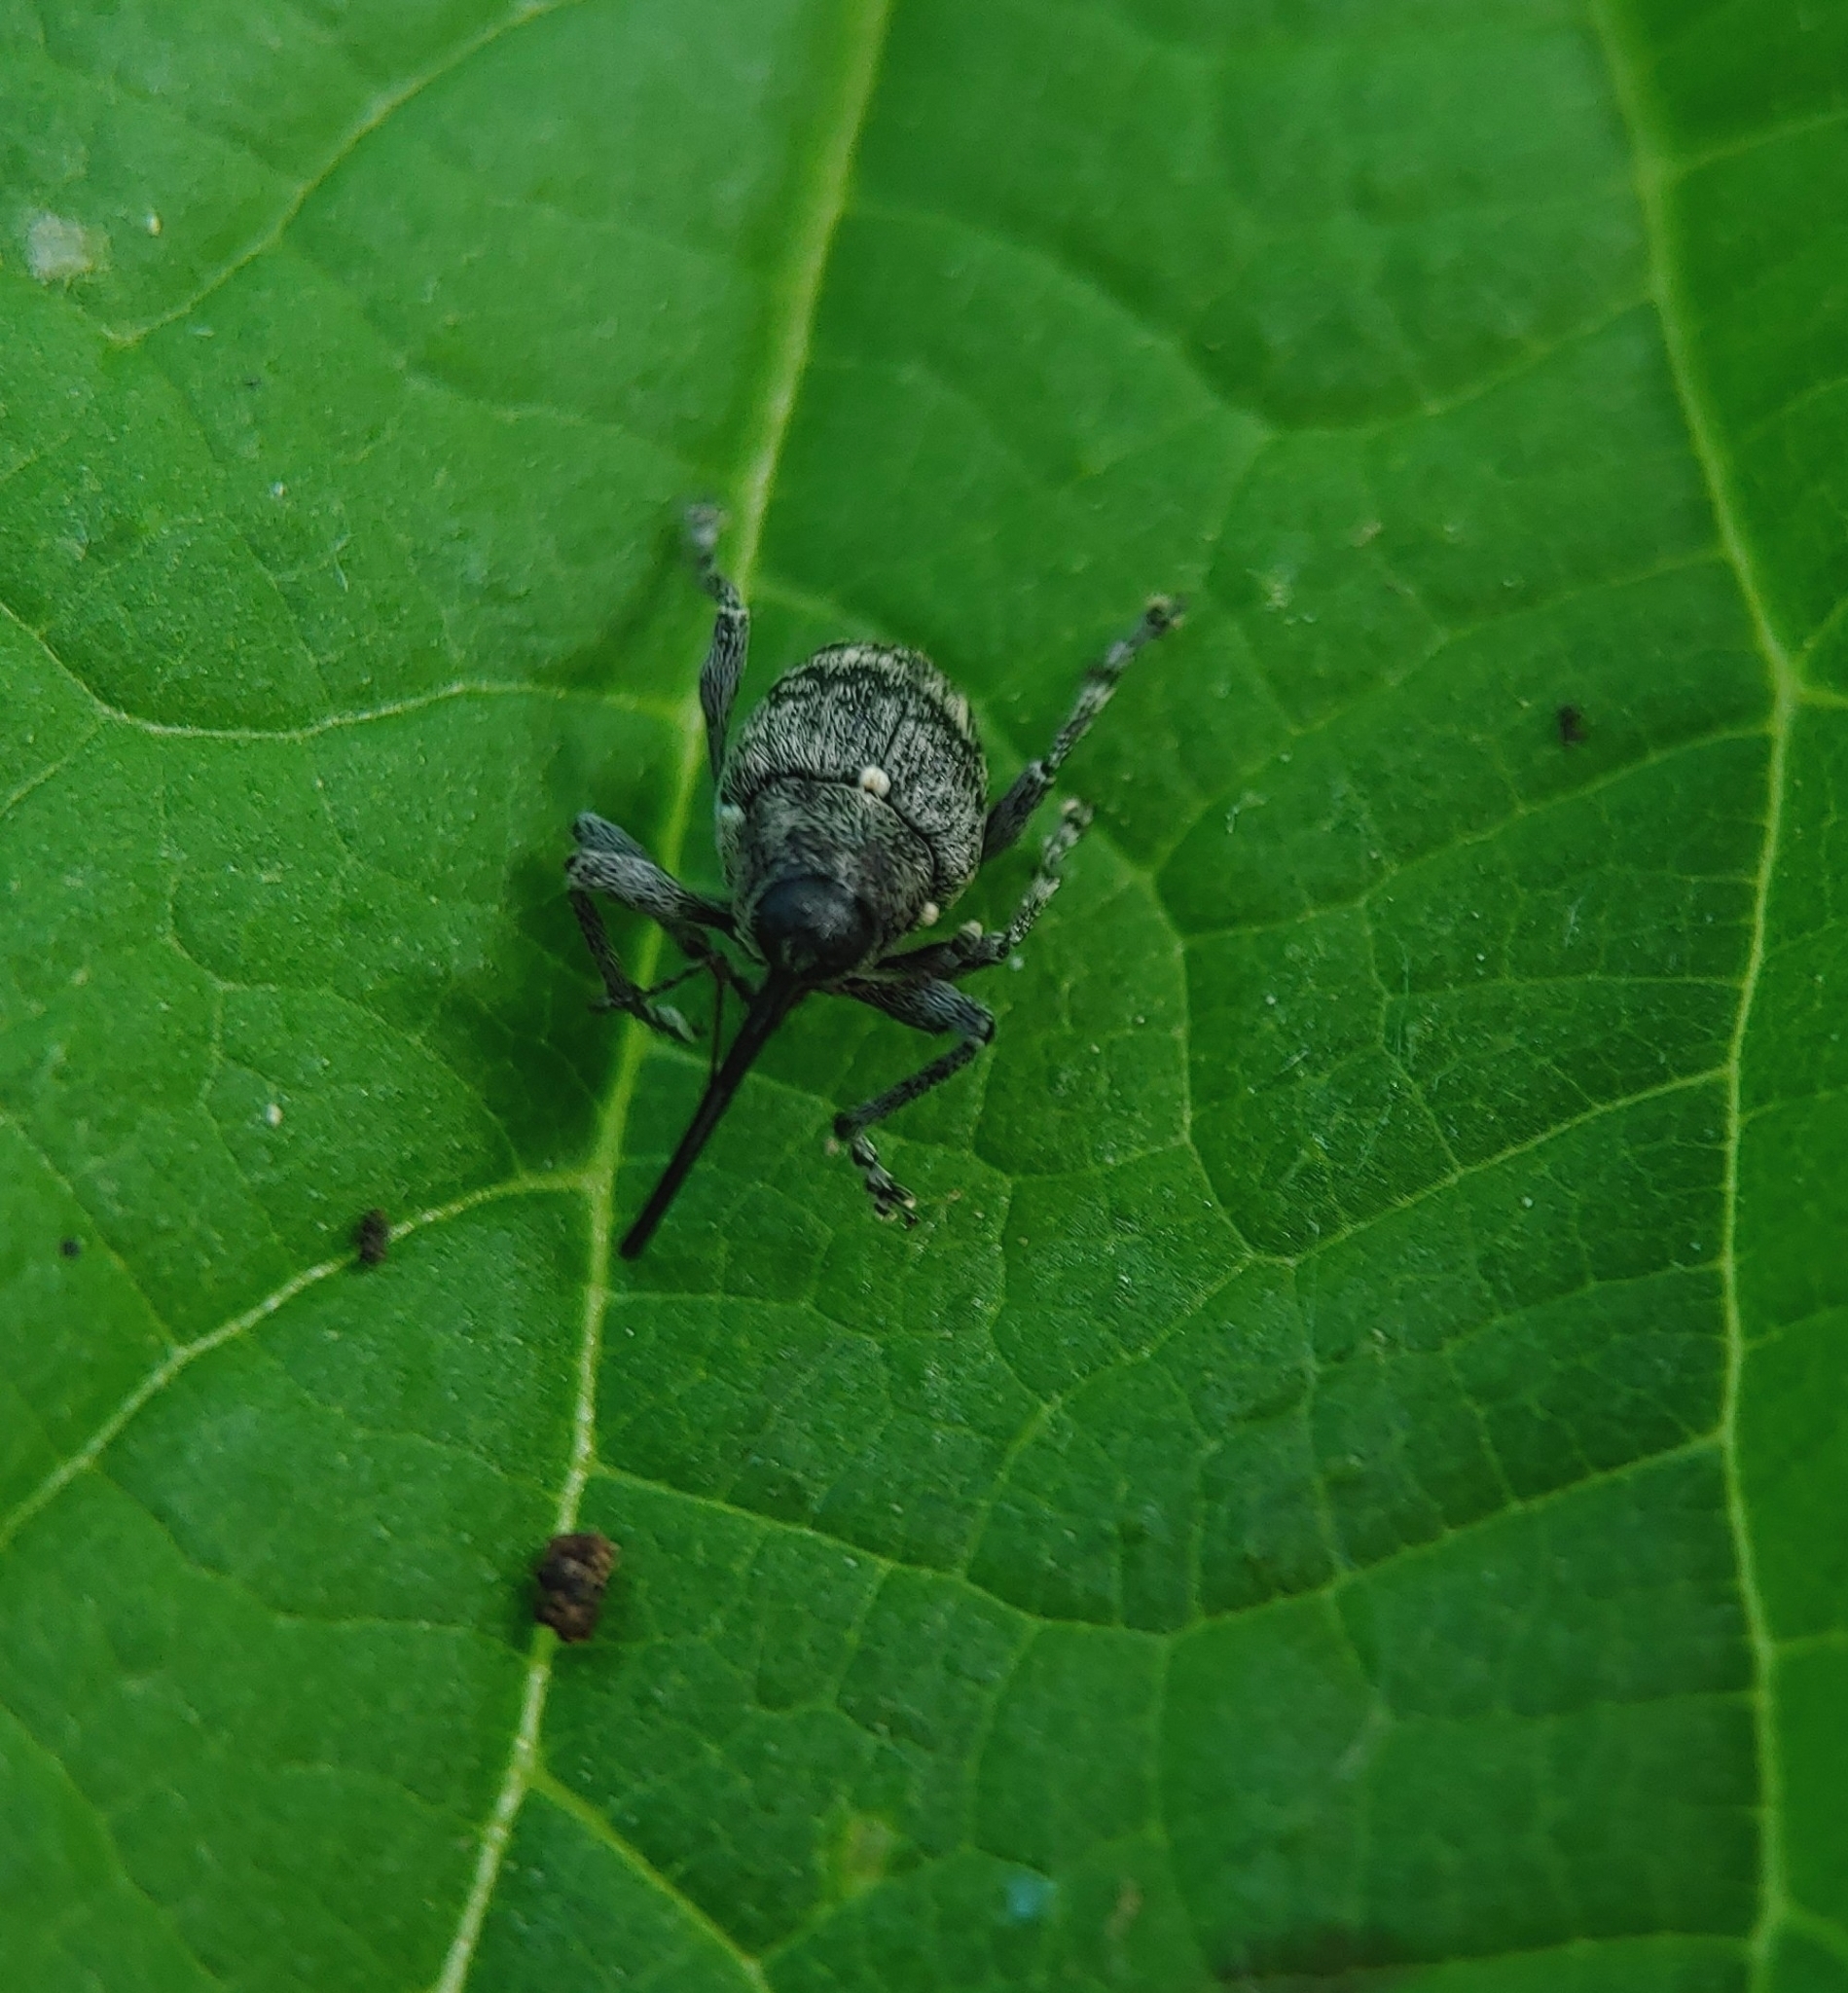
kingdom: Animalia
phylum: Arthropoda
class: Insecta
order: Coleoptera
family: Curculionidae
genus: Curculio
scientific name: Curculio villosus
